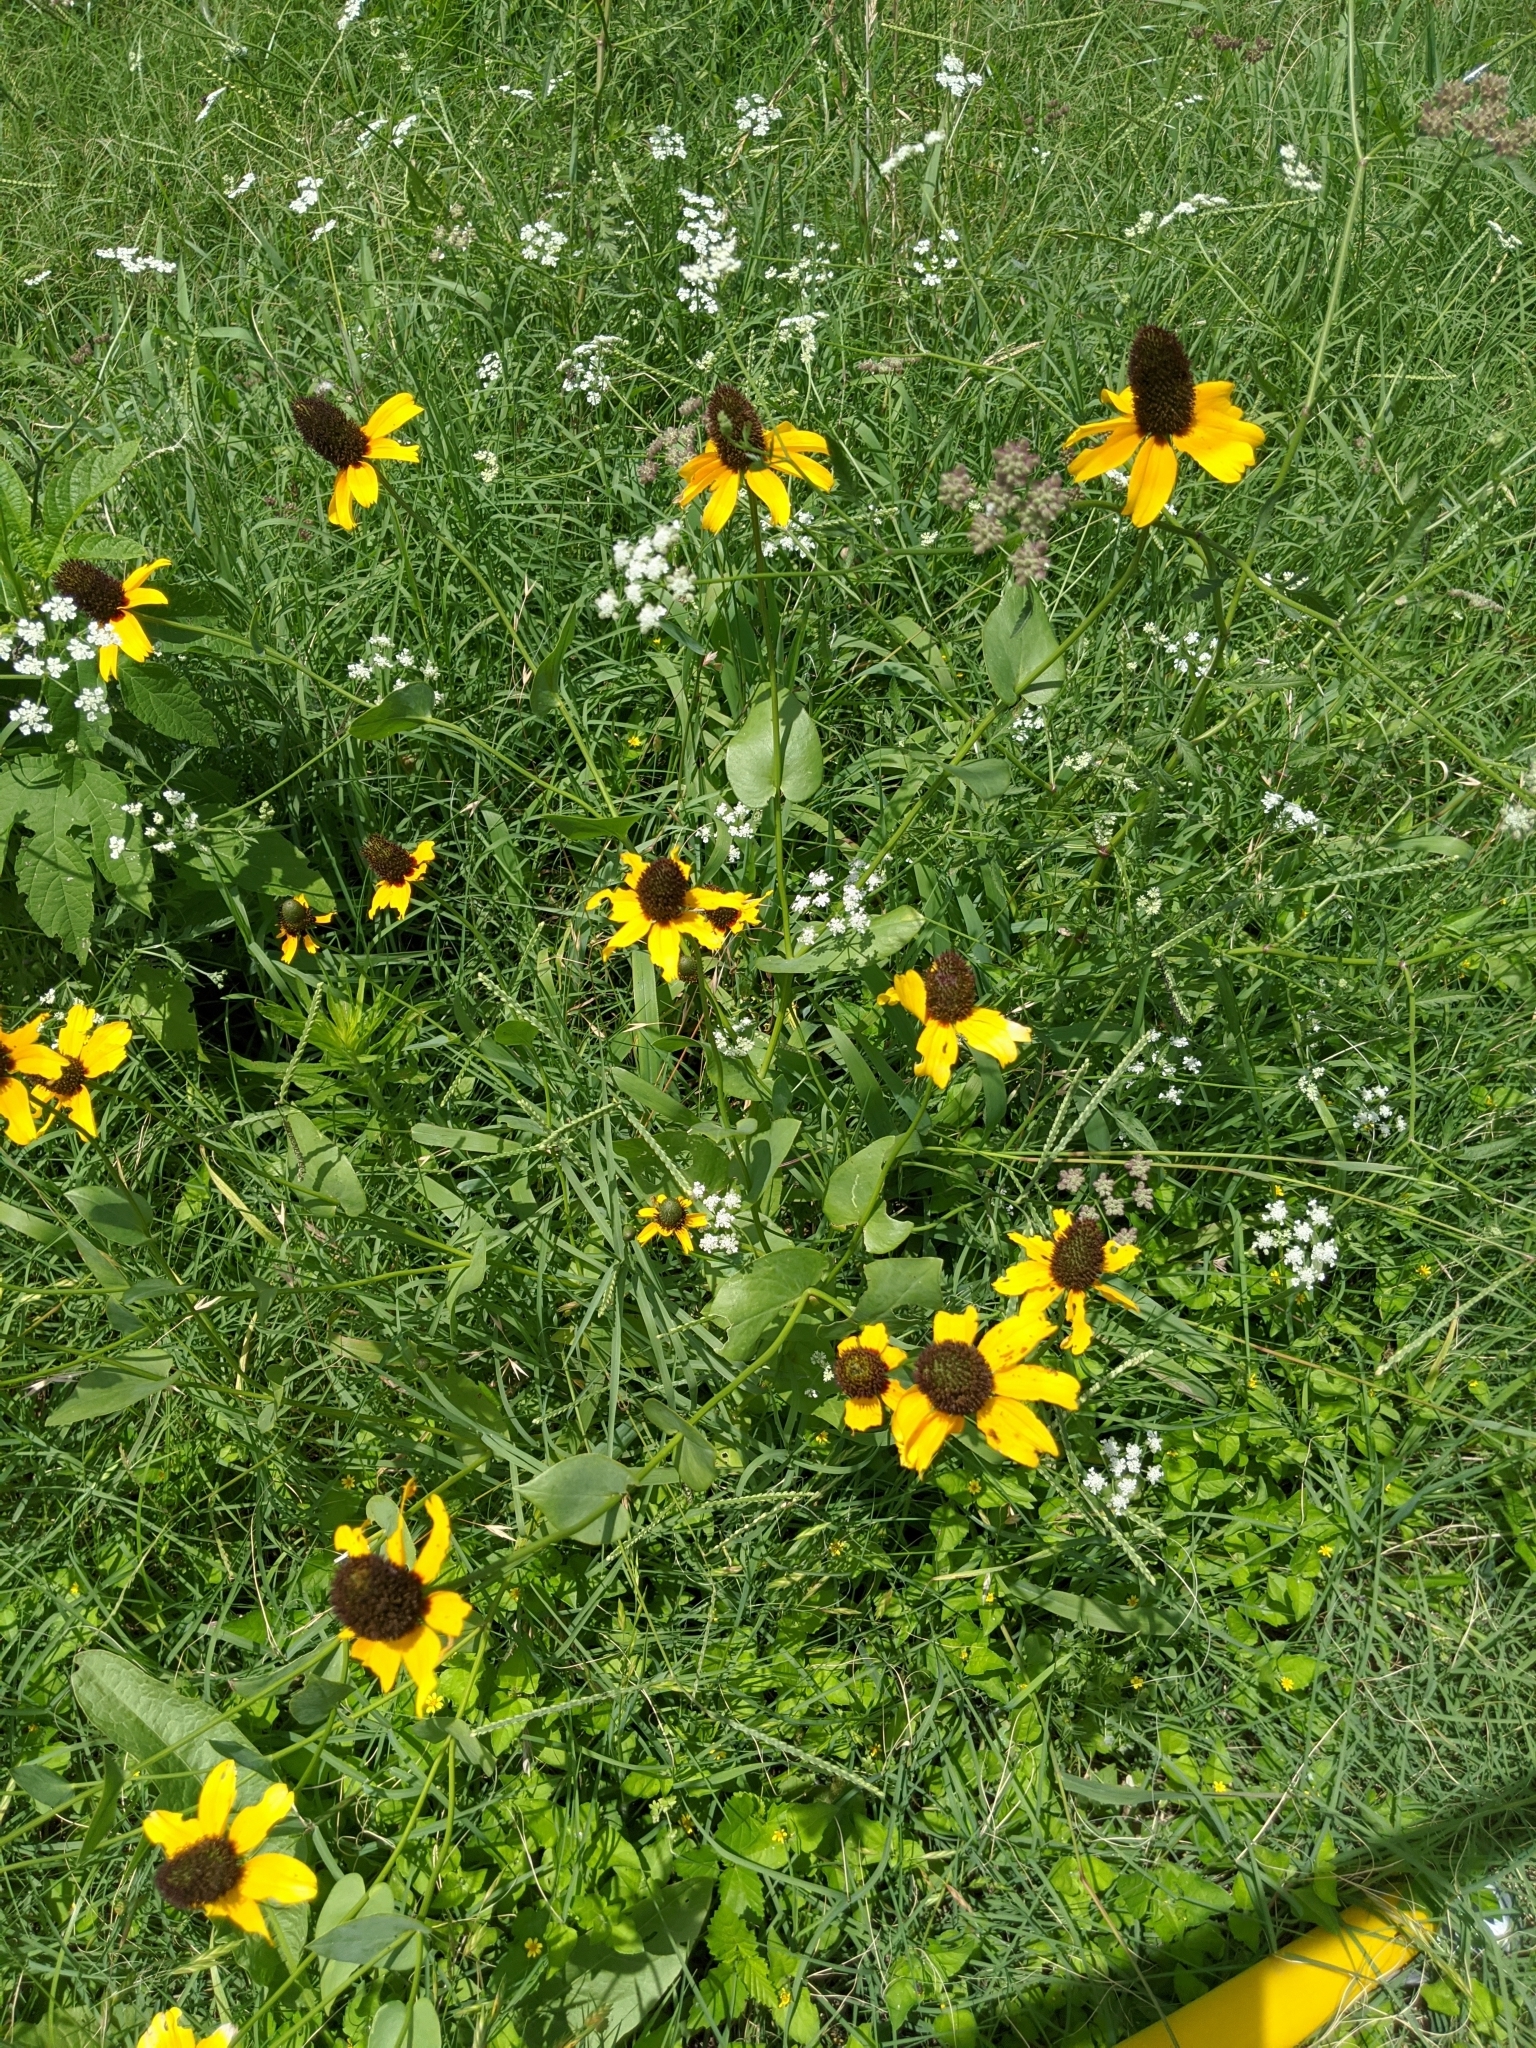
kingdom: Plantae
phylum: Tracheophyta
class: Magnoliopsida
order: Asterales
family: Asteraceae
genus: Rudbeckia
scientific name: Rudbeckia amplexicaulis
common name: Clasping-leaf coneflower
